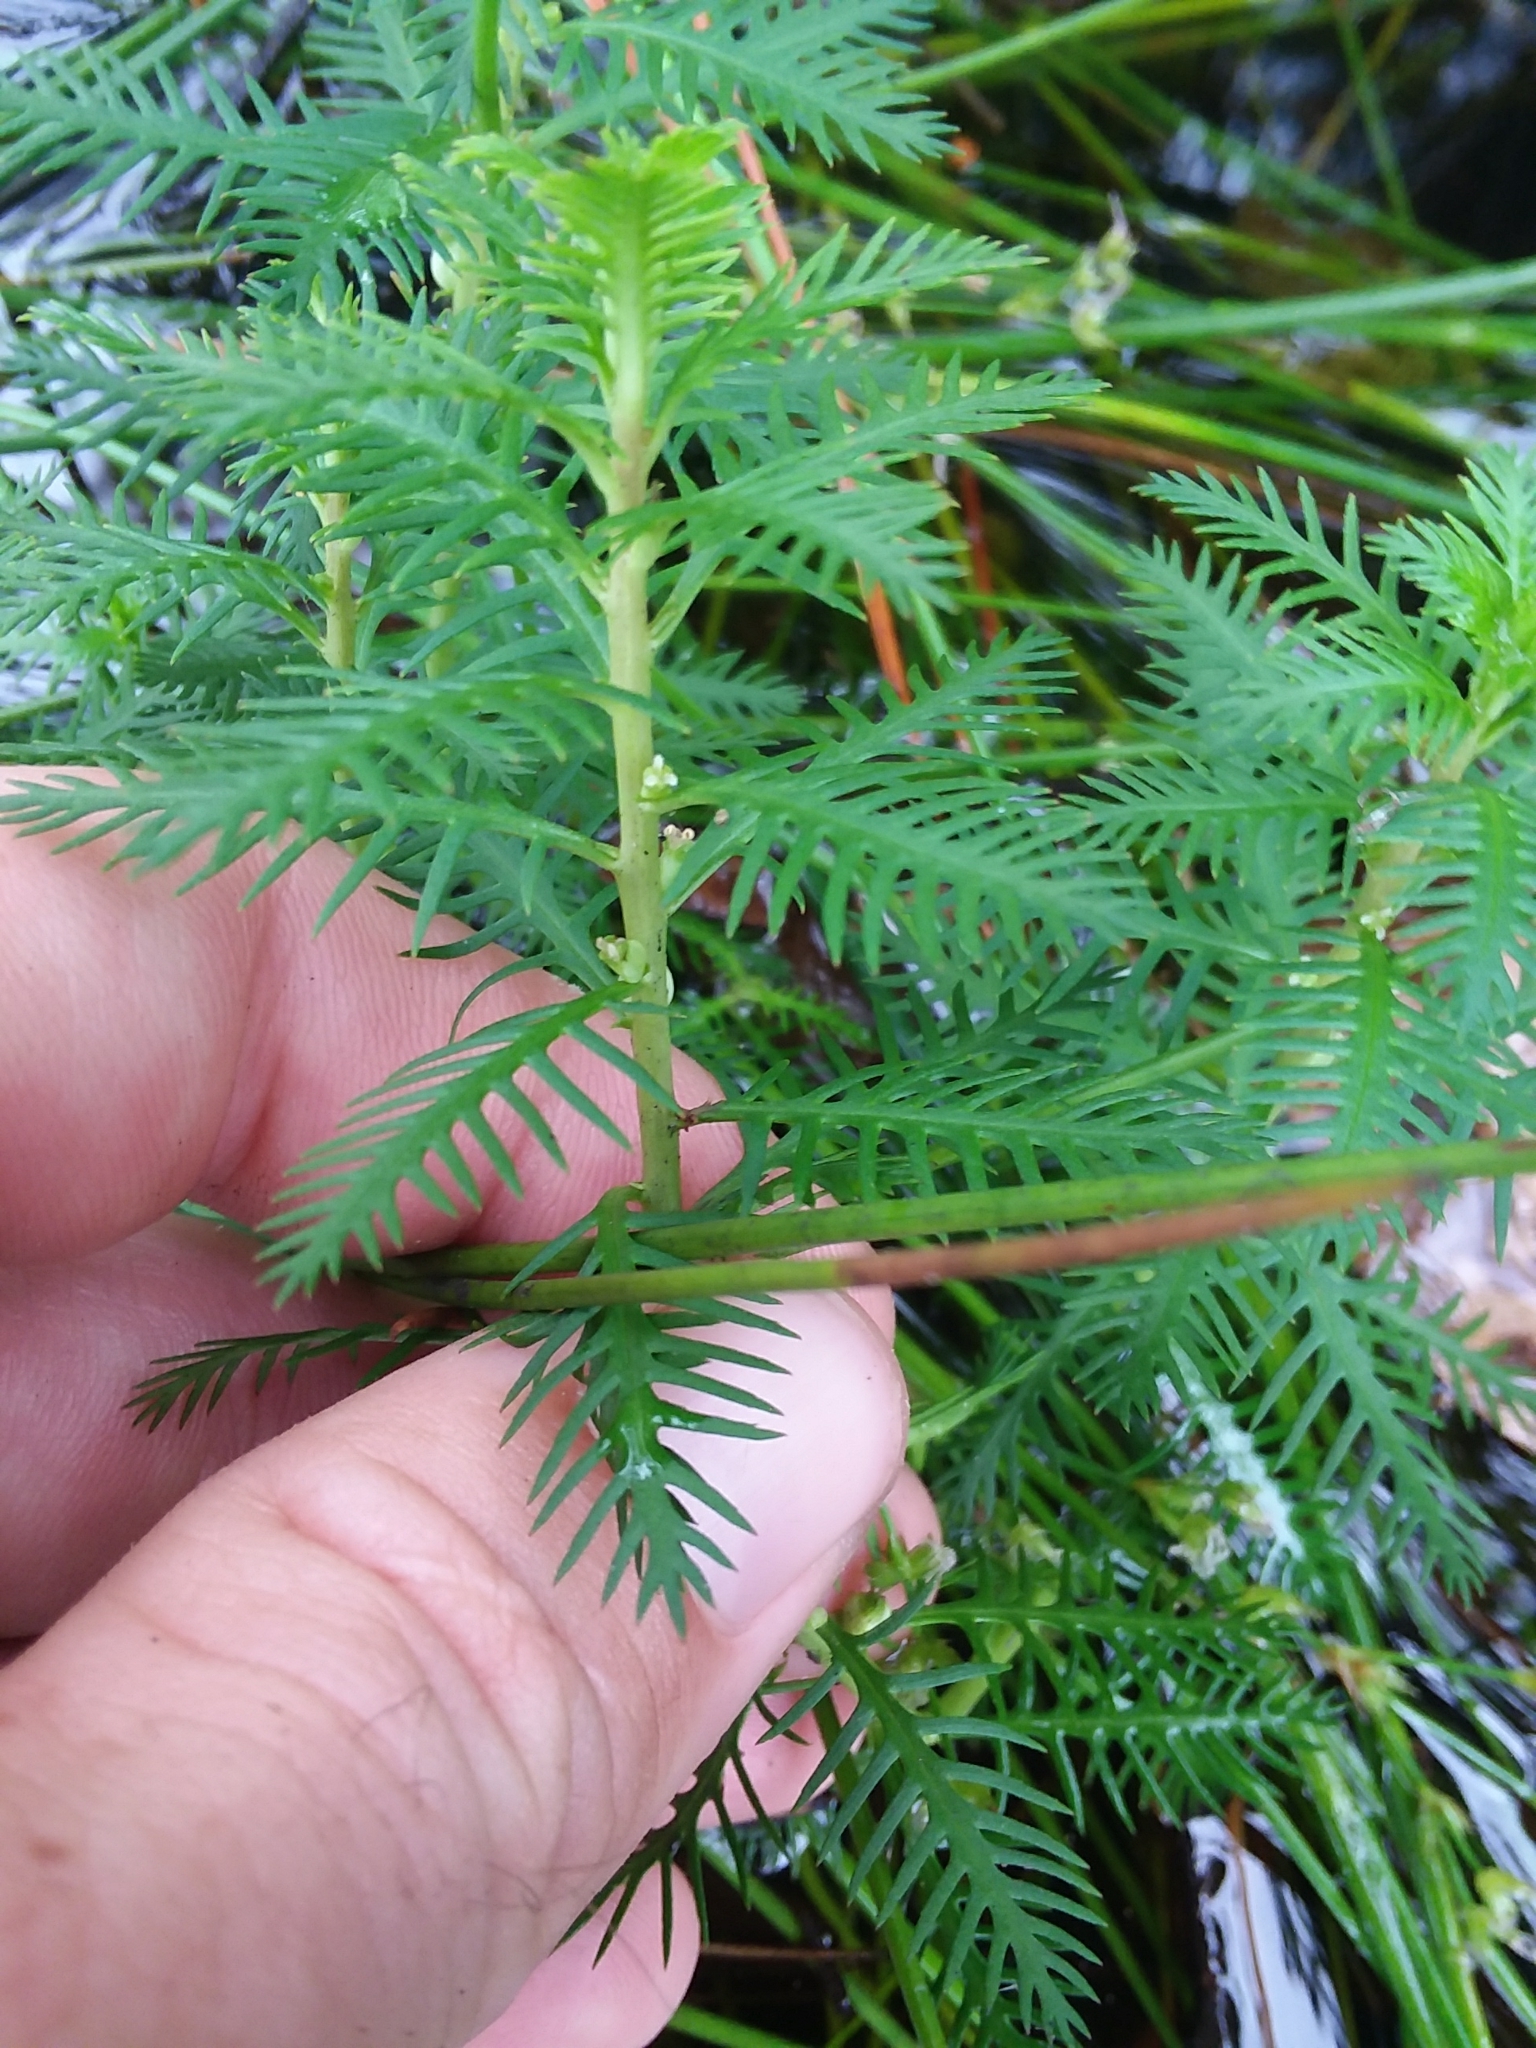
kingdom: Plantae
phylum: Tracheophyta
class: Magnoliopsida
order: Saxifragales
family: Haloragaceae
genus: Proserpinaca
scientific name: Proserpinaca intermedia
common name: Intermediate mermaidweed
